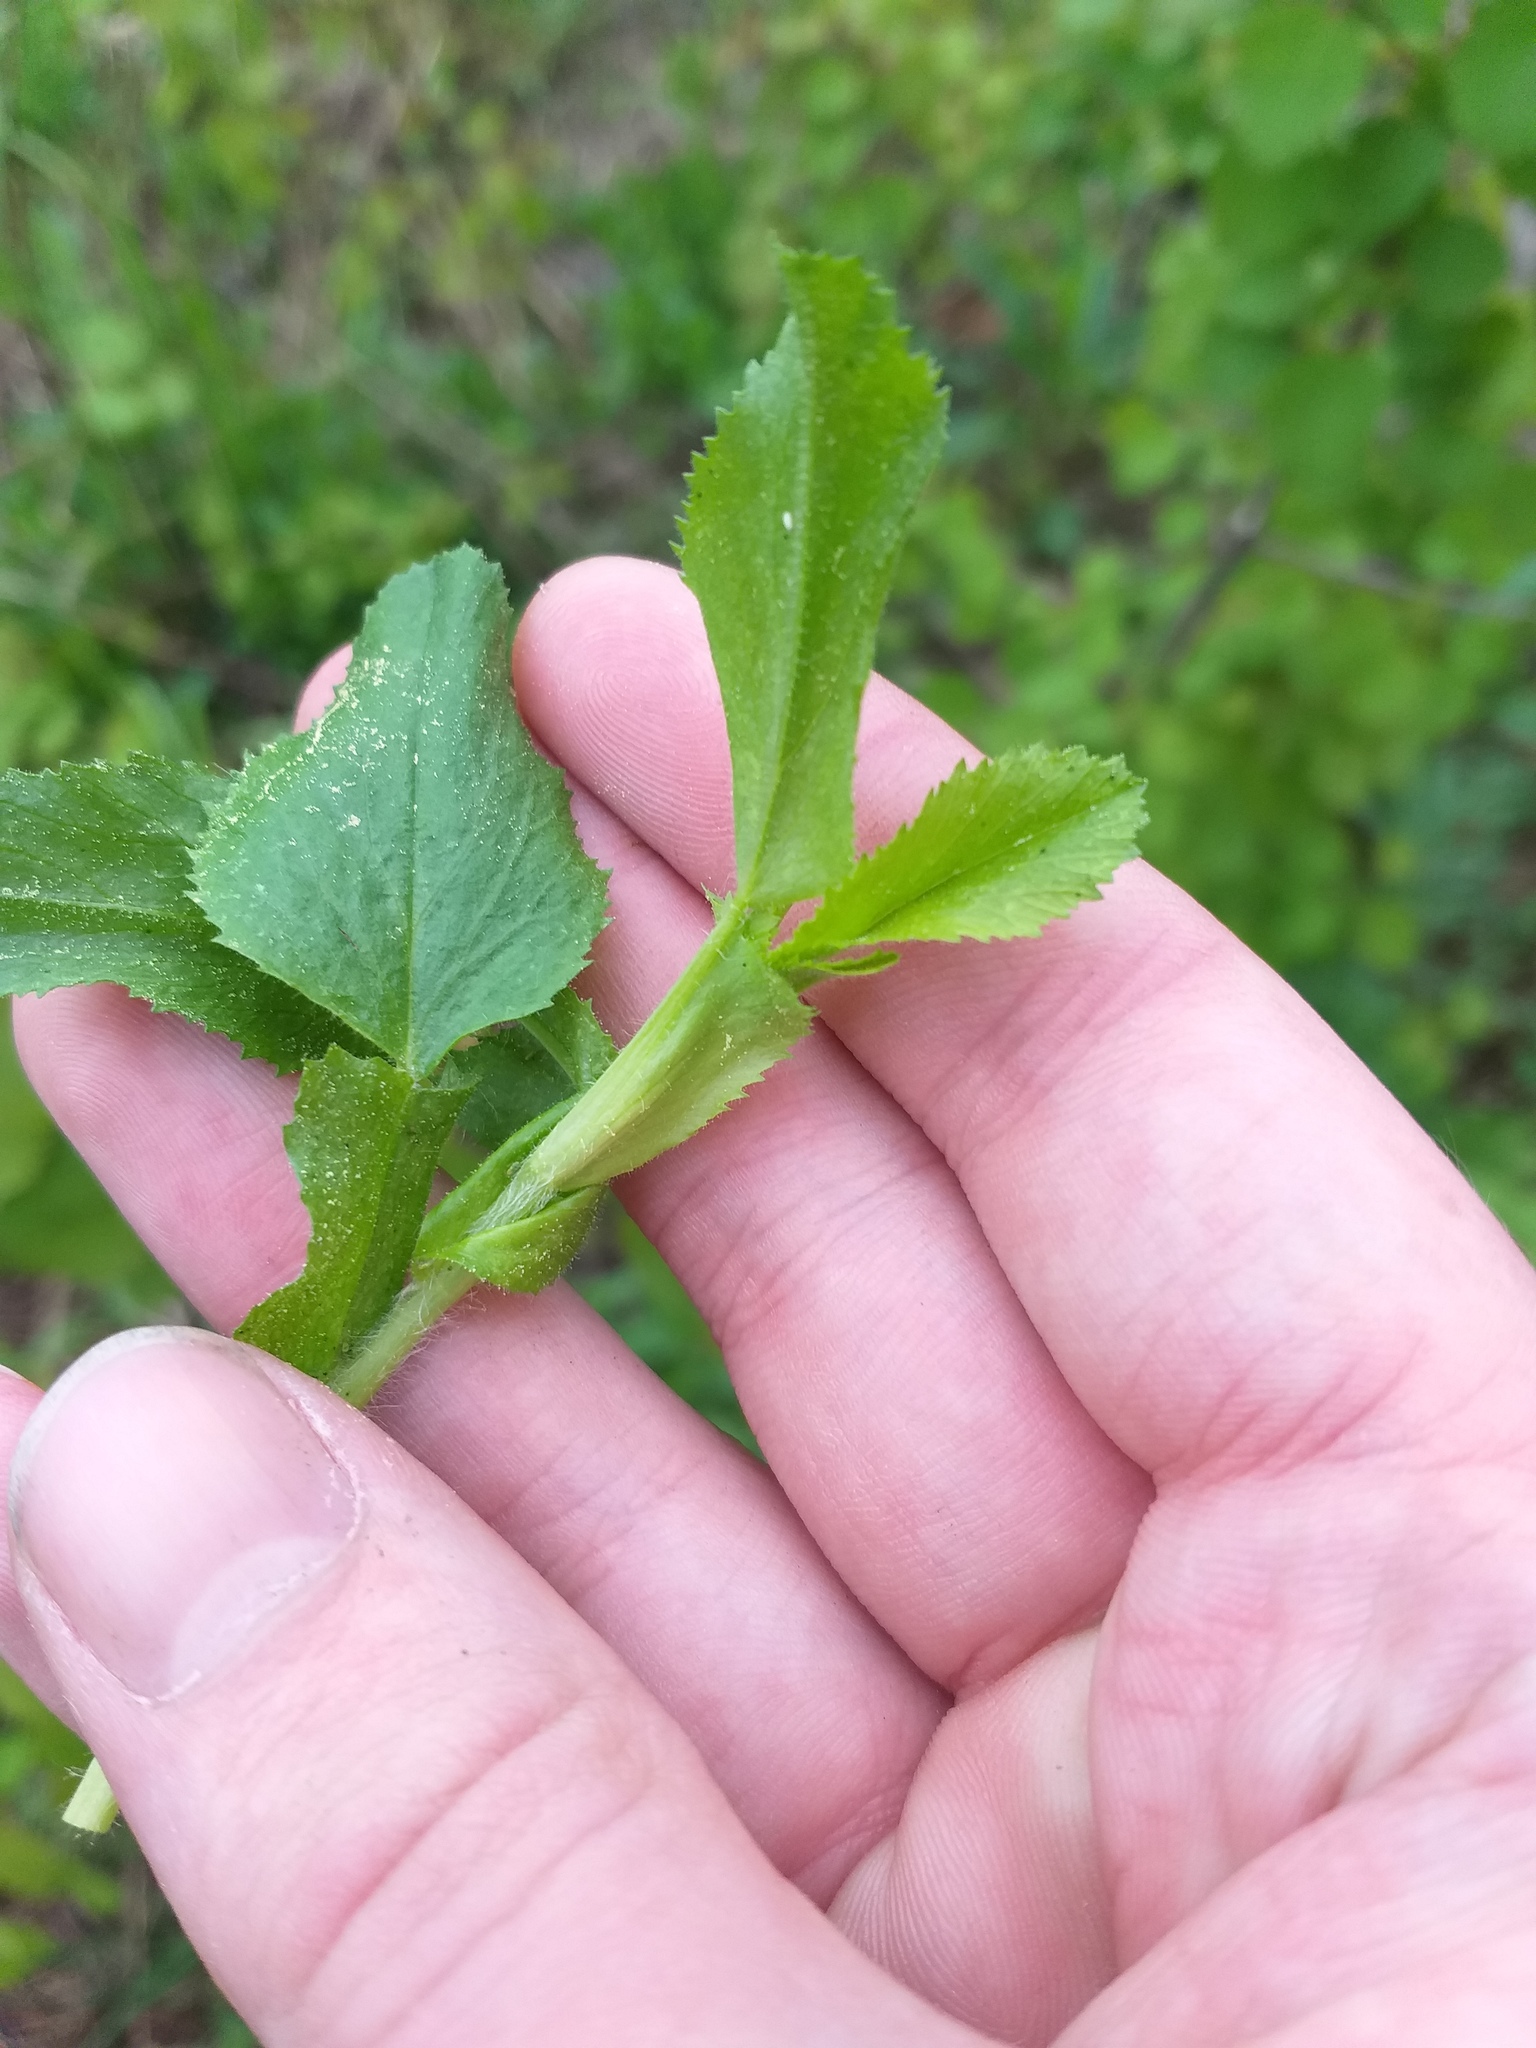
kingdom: Plantae
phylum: Tracheophyta
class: Magnoliopsida
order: Fabales
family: Fabaceae
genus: Ononis
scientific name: Ononis arvensis
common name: Field restharrow
